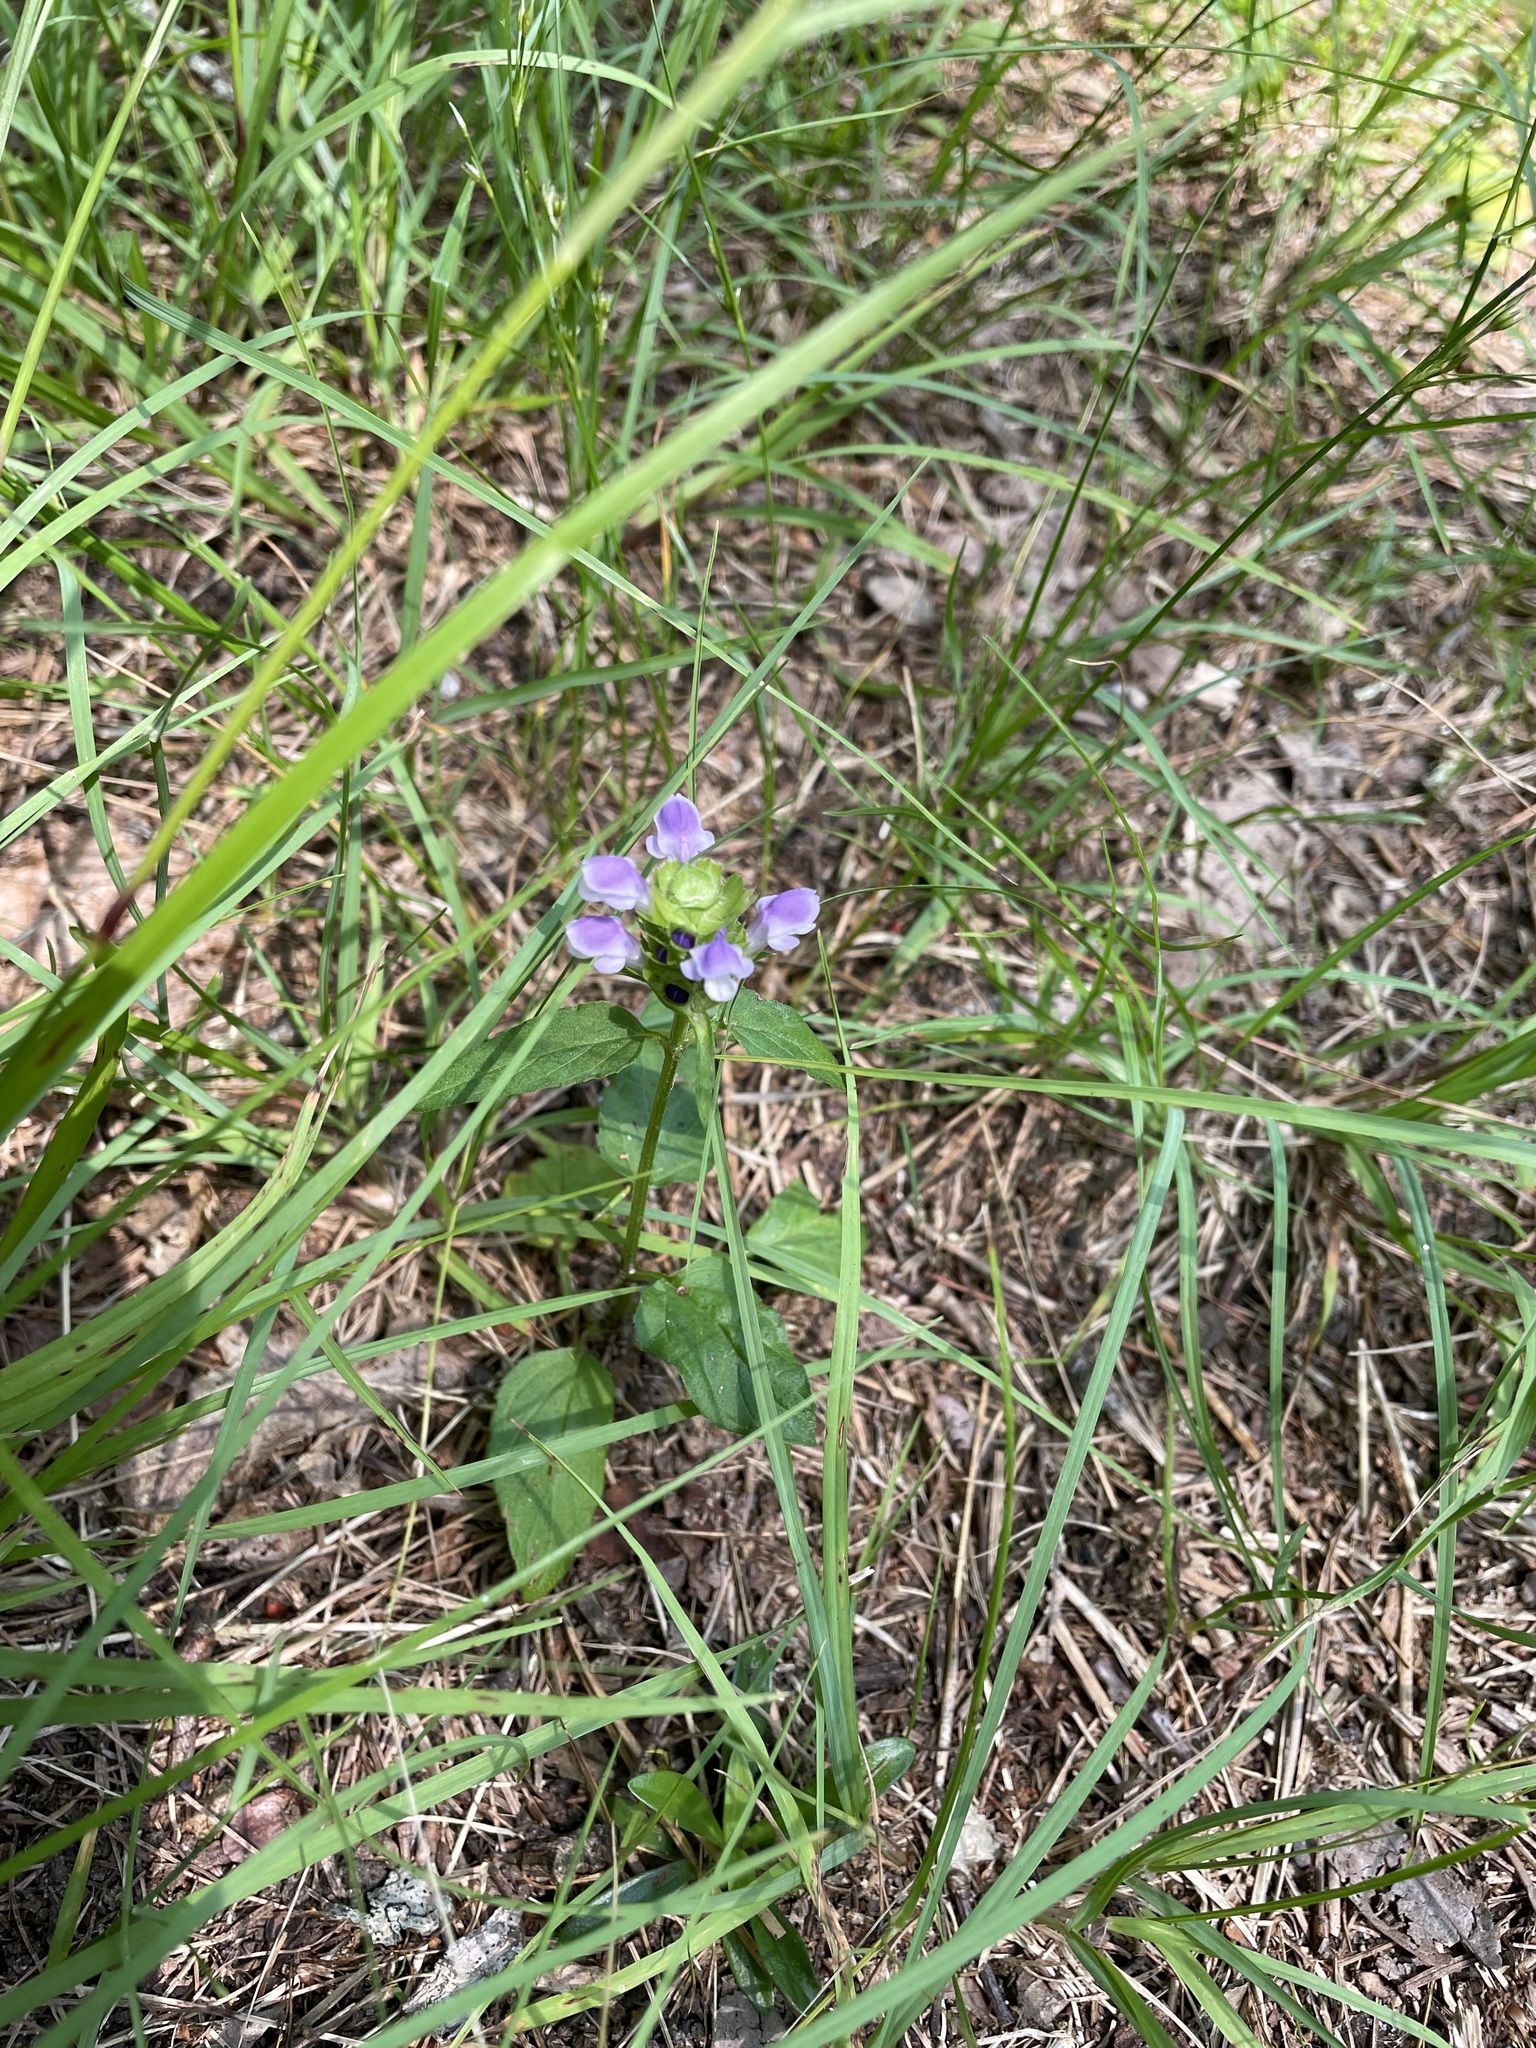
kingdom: Plantae
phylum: Tracheophyta
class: Magnoliopsida
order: Lamiales
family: Lamiaceae
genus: Prunella
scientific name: Prunella vulgaris
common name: Heal-all
